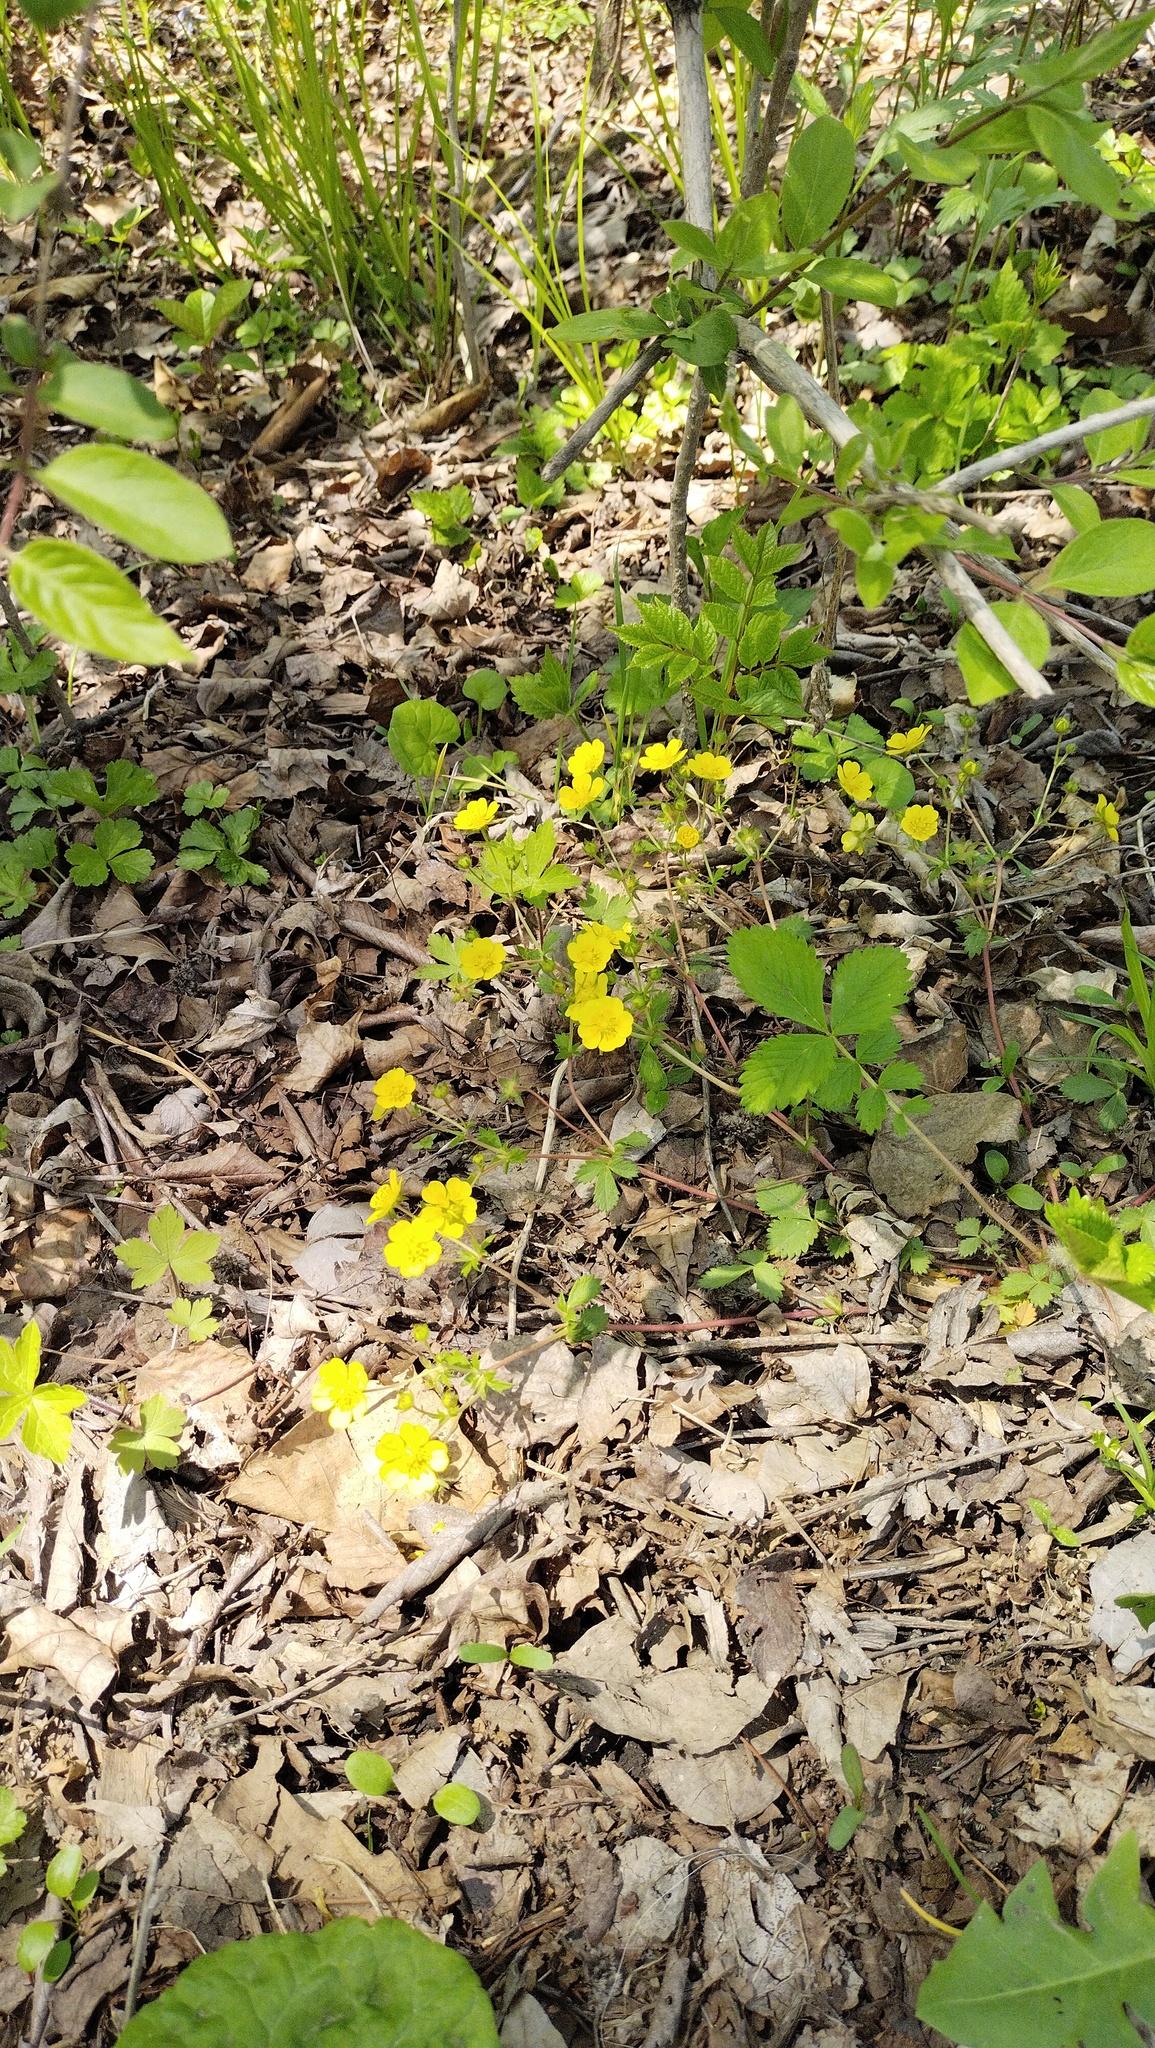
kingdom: Plantae
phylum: Tracheophyta
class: Magnoliopsida
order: Rosales
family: Rosaceae
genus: Potentilla
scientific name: Potentilla fragarioides
